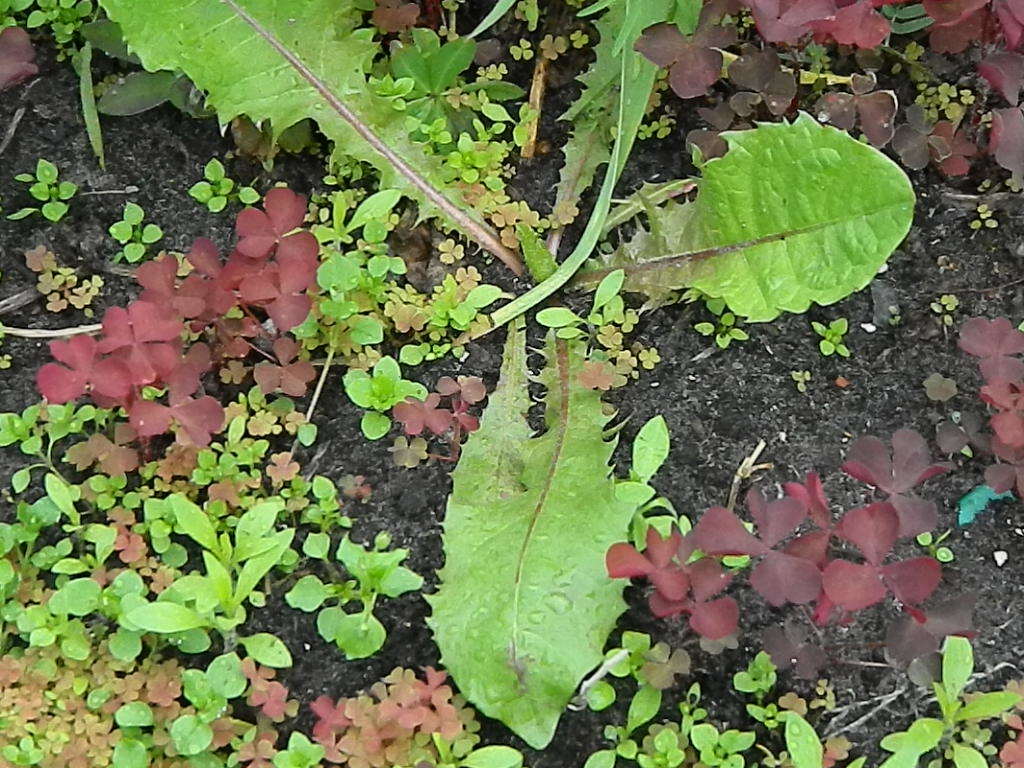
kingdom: Plantae
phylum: Tracheophyta
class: Magnoliopsida
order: Asterales
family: Asteraceae
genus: Taraxacum
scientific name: Taraxacum officinale
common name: Common dandelion
